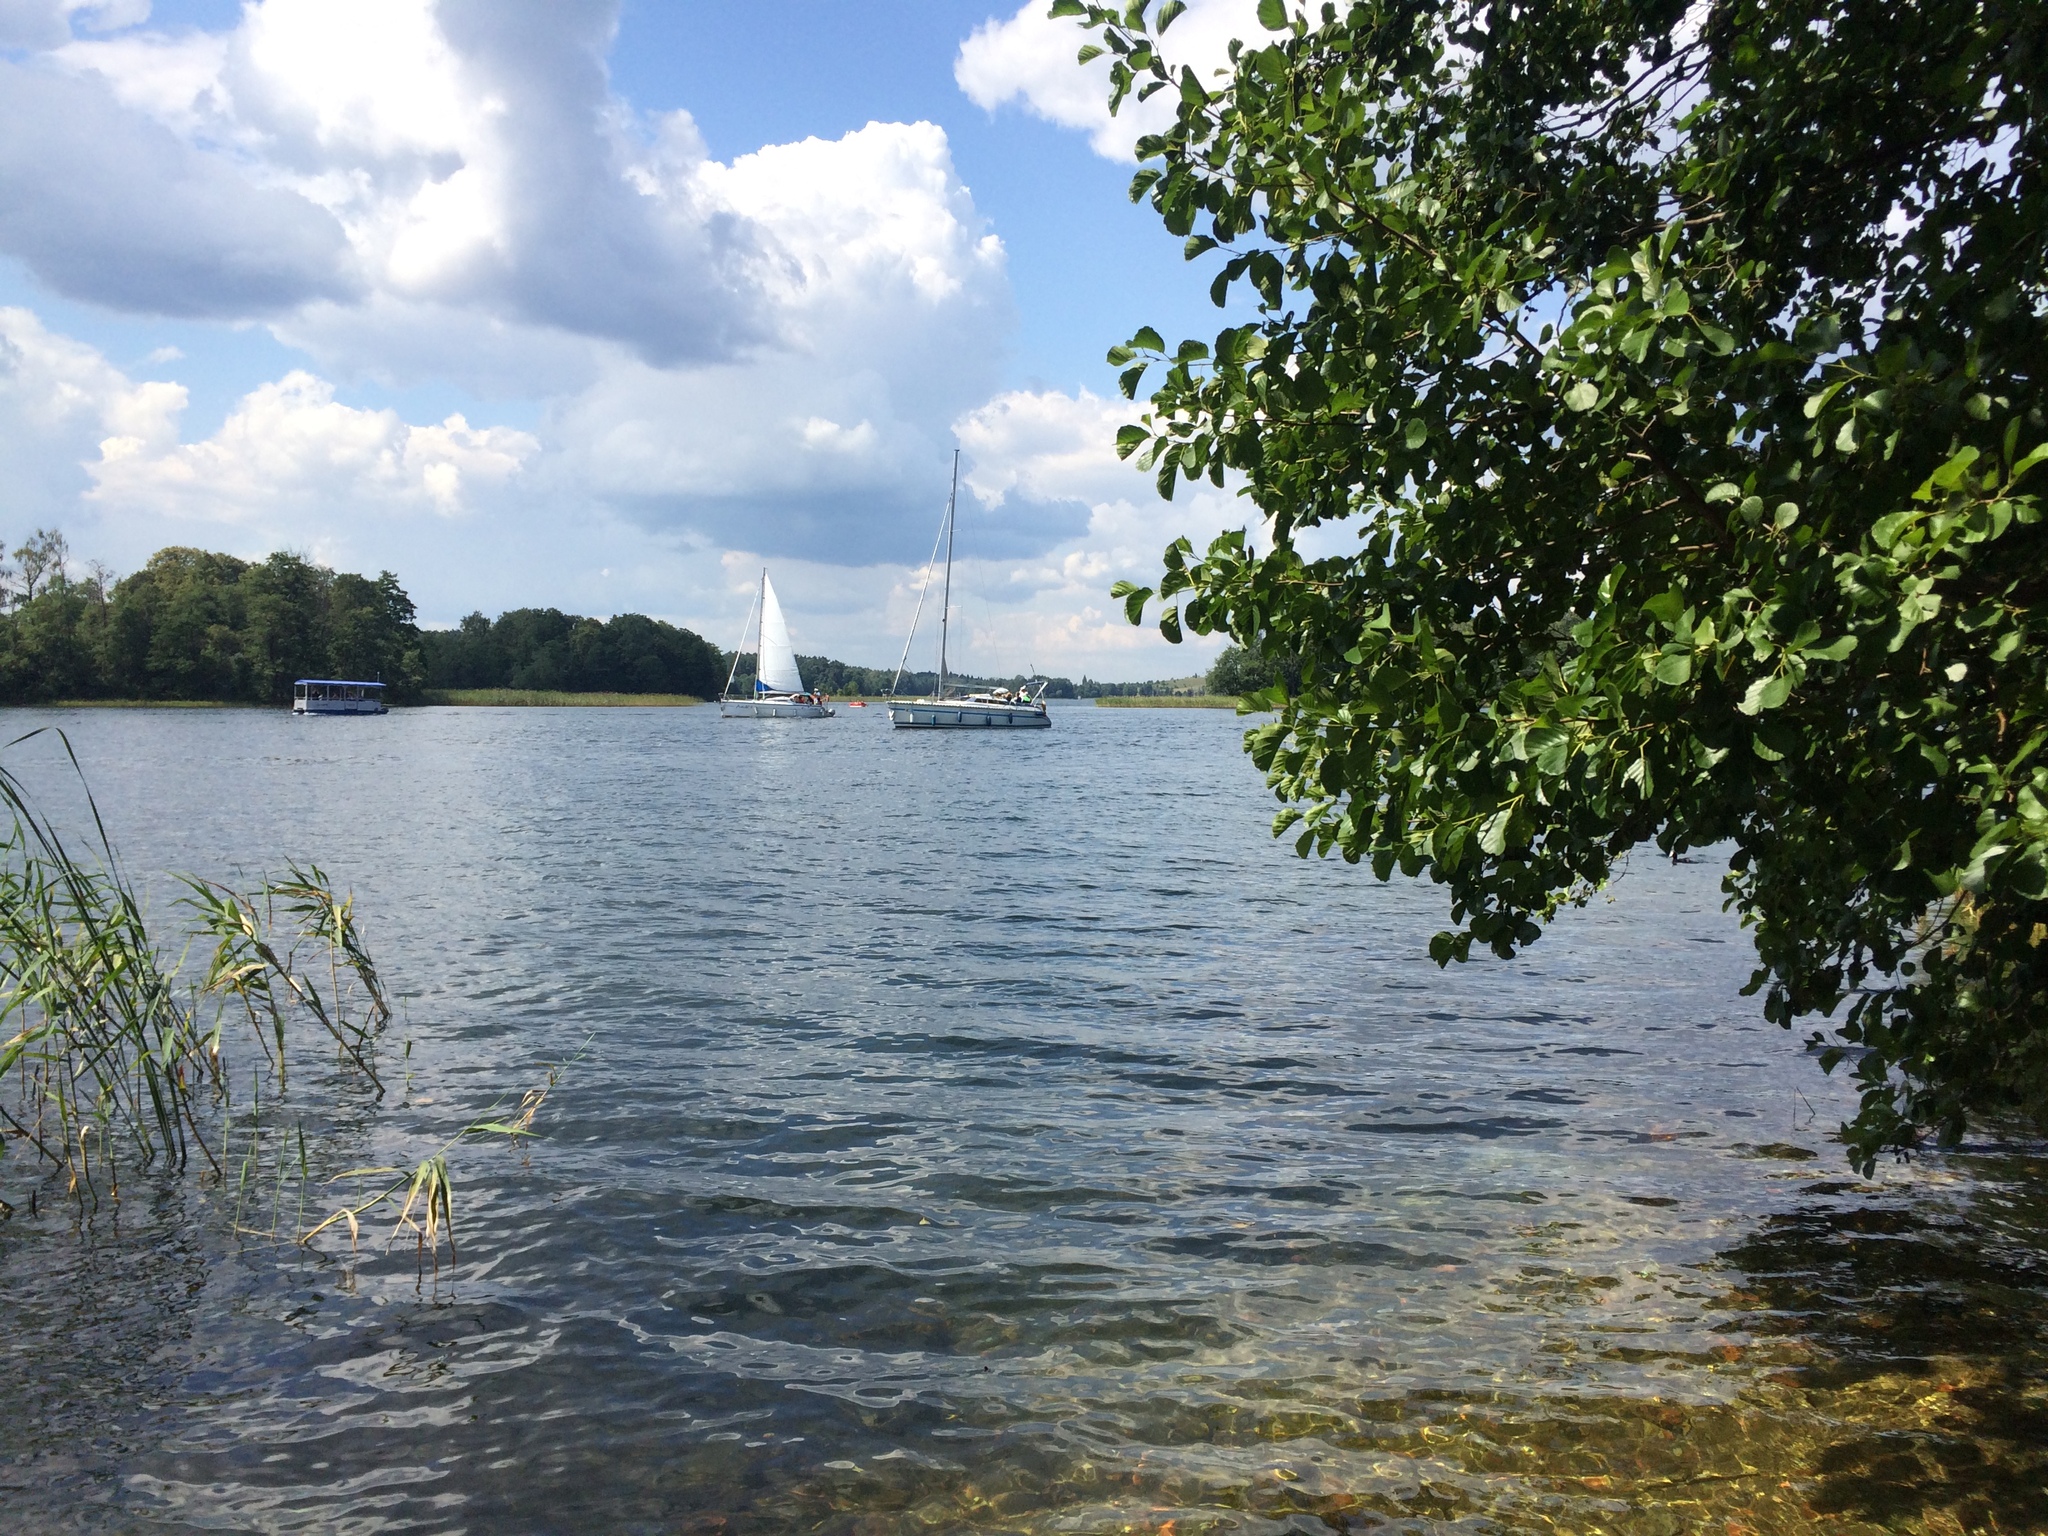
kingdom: Plantae
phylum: Tracheophyta
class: Magnoliopsida
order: Fagales
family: Betulaceae
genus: Alnus
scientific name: Alnus glutinosa
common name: Black alder
